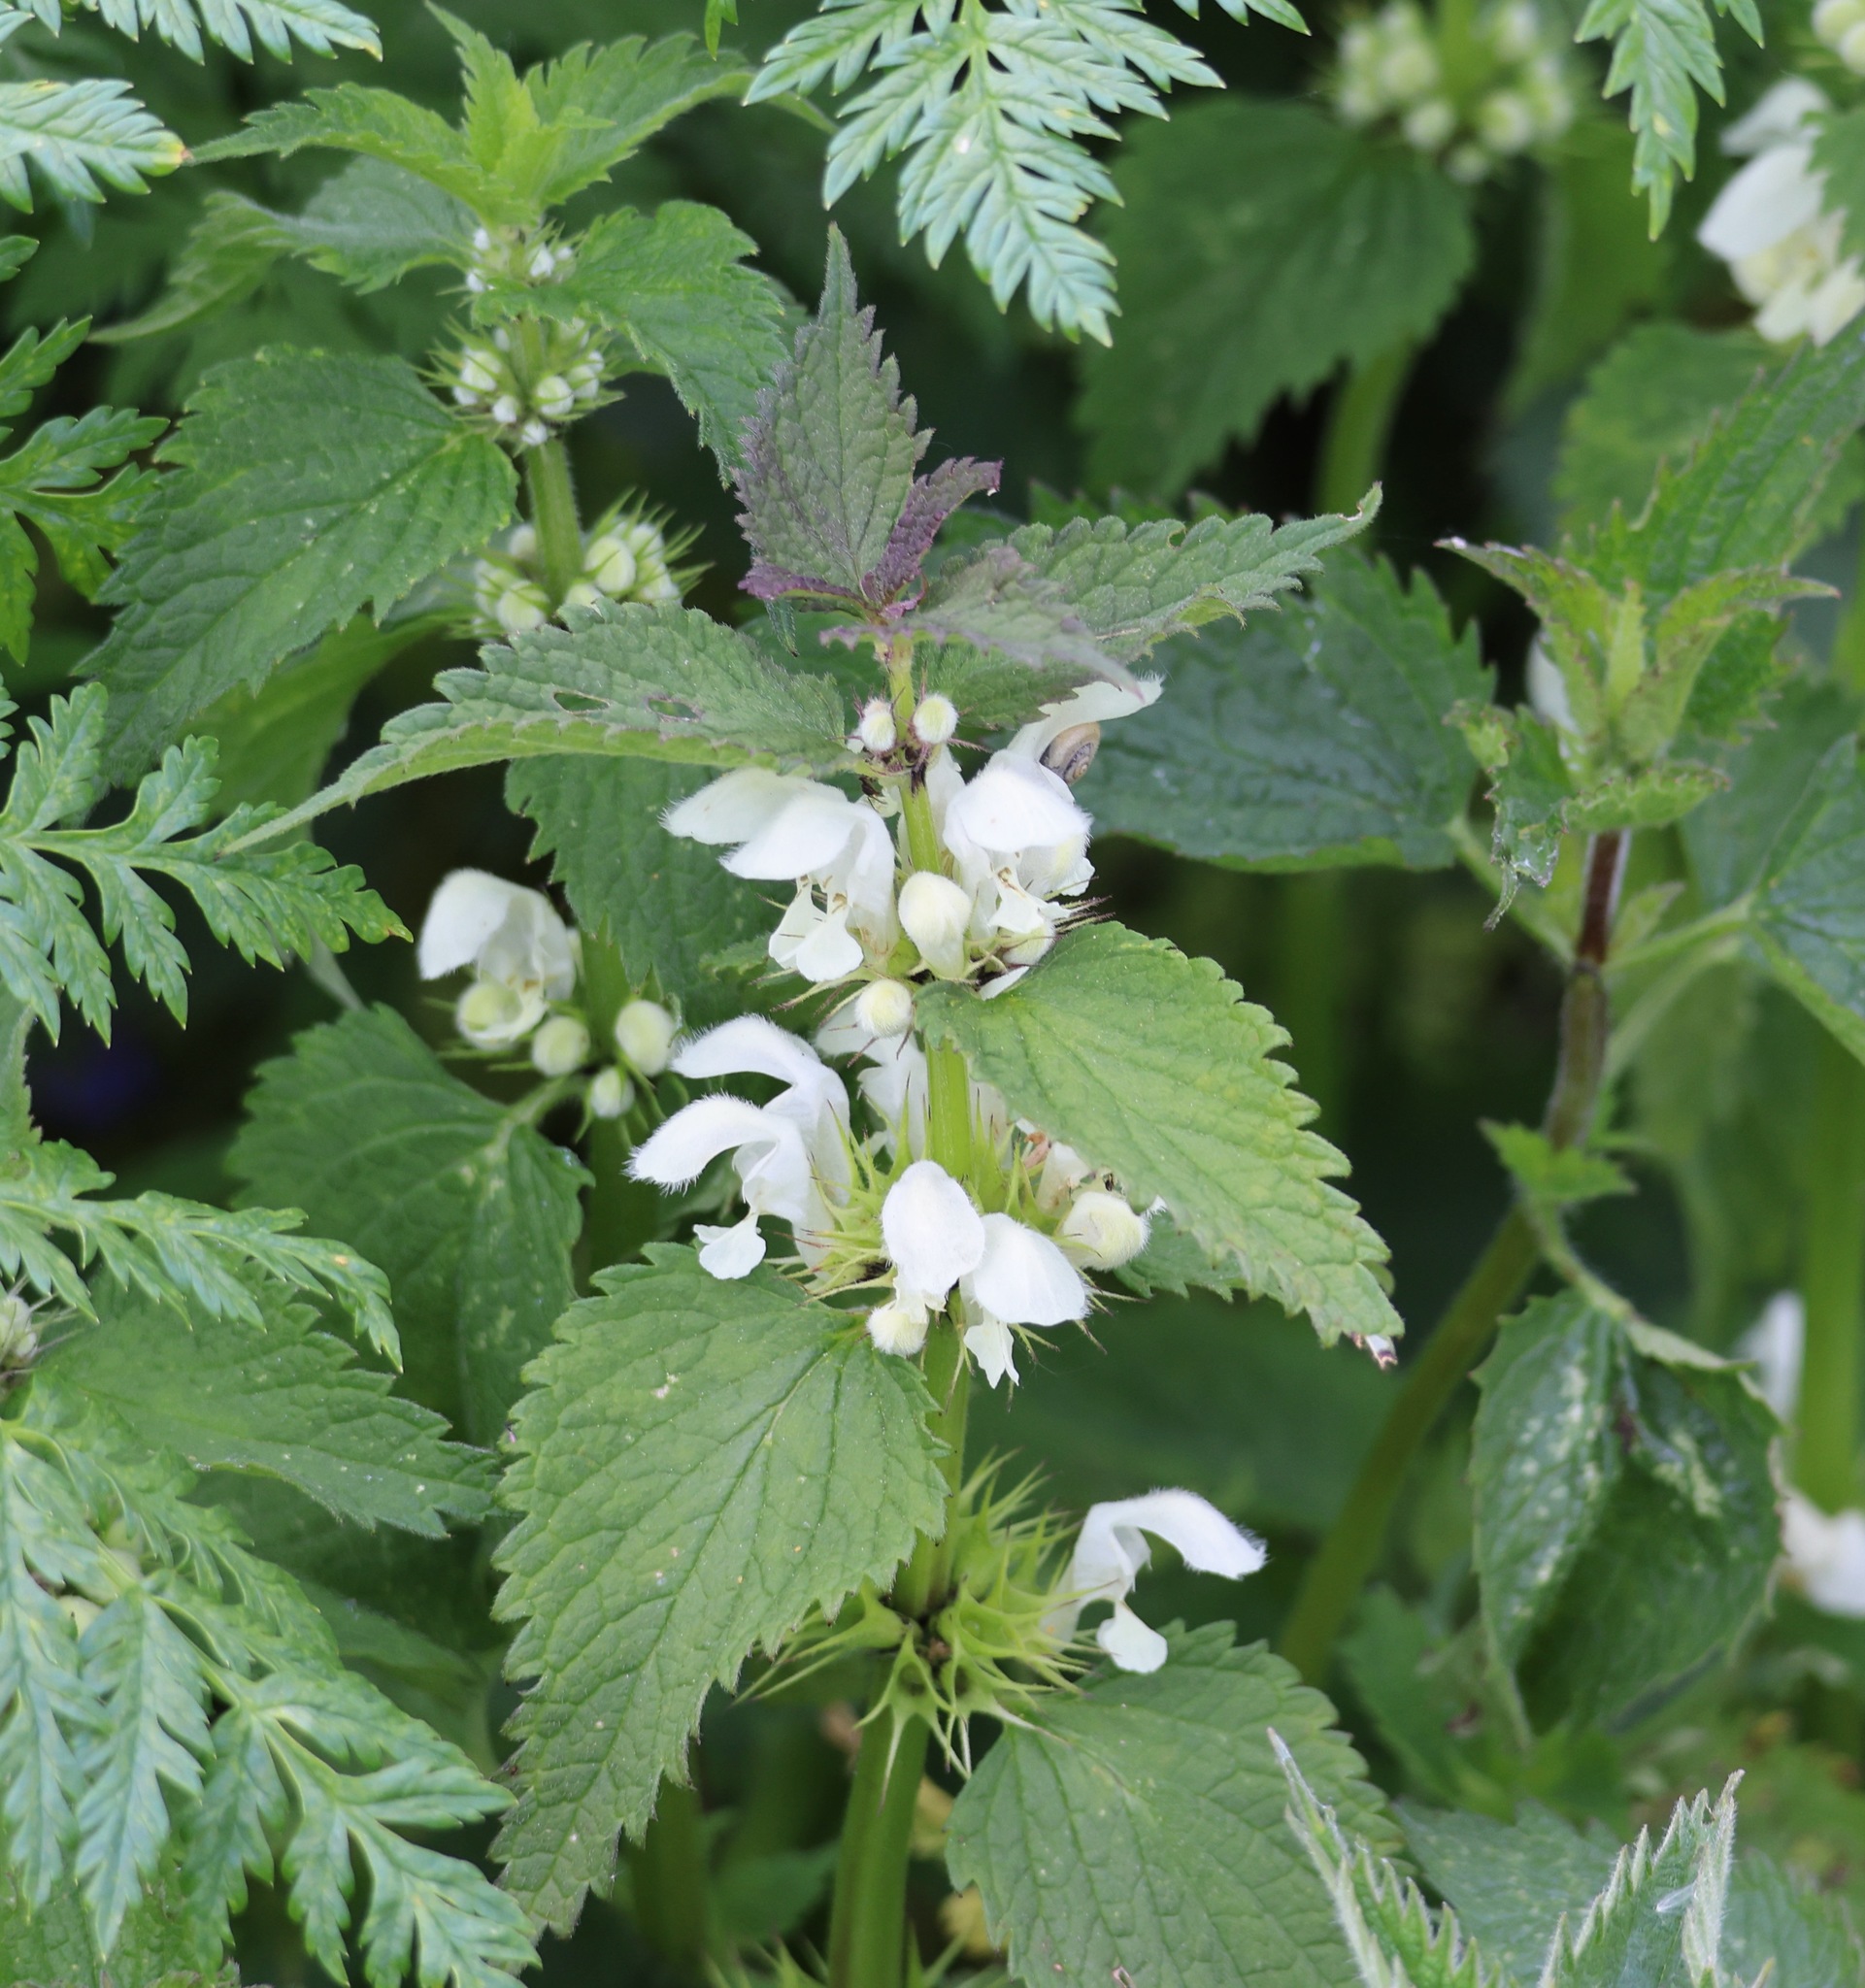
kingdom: Plantae
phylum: Tracheophyta
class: Magnoliopsida
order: Lamiales
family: Lamiaceae
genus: Lamium
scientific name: Lamium album
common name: White dead-nettle
